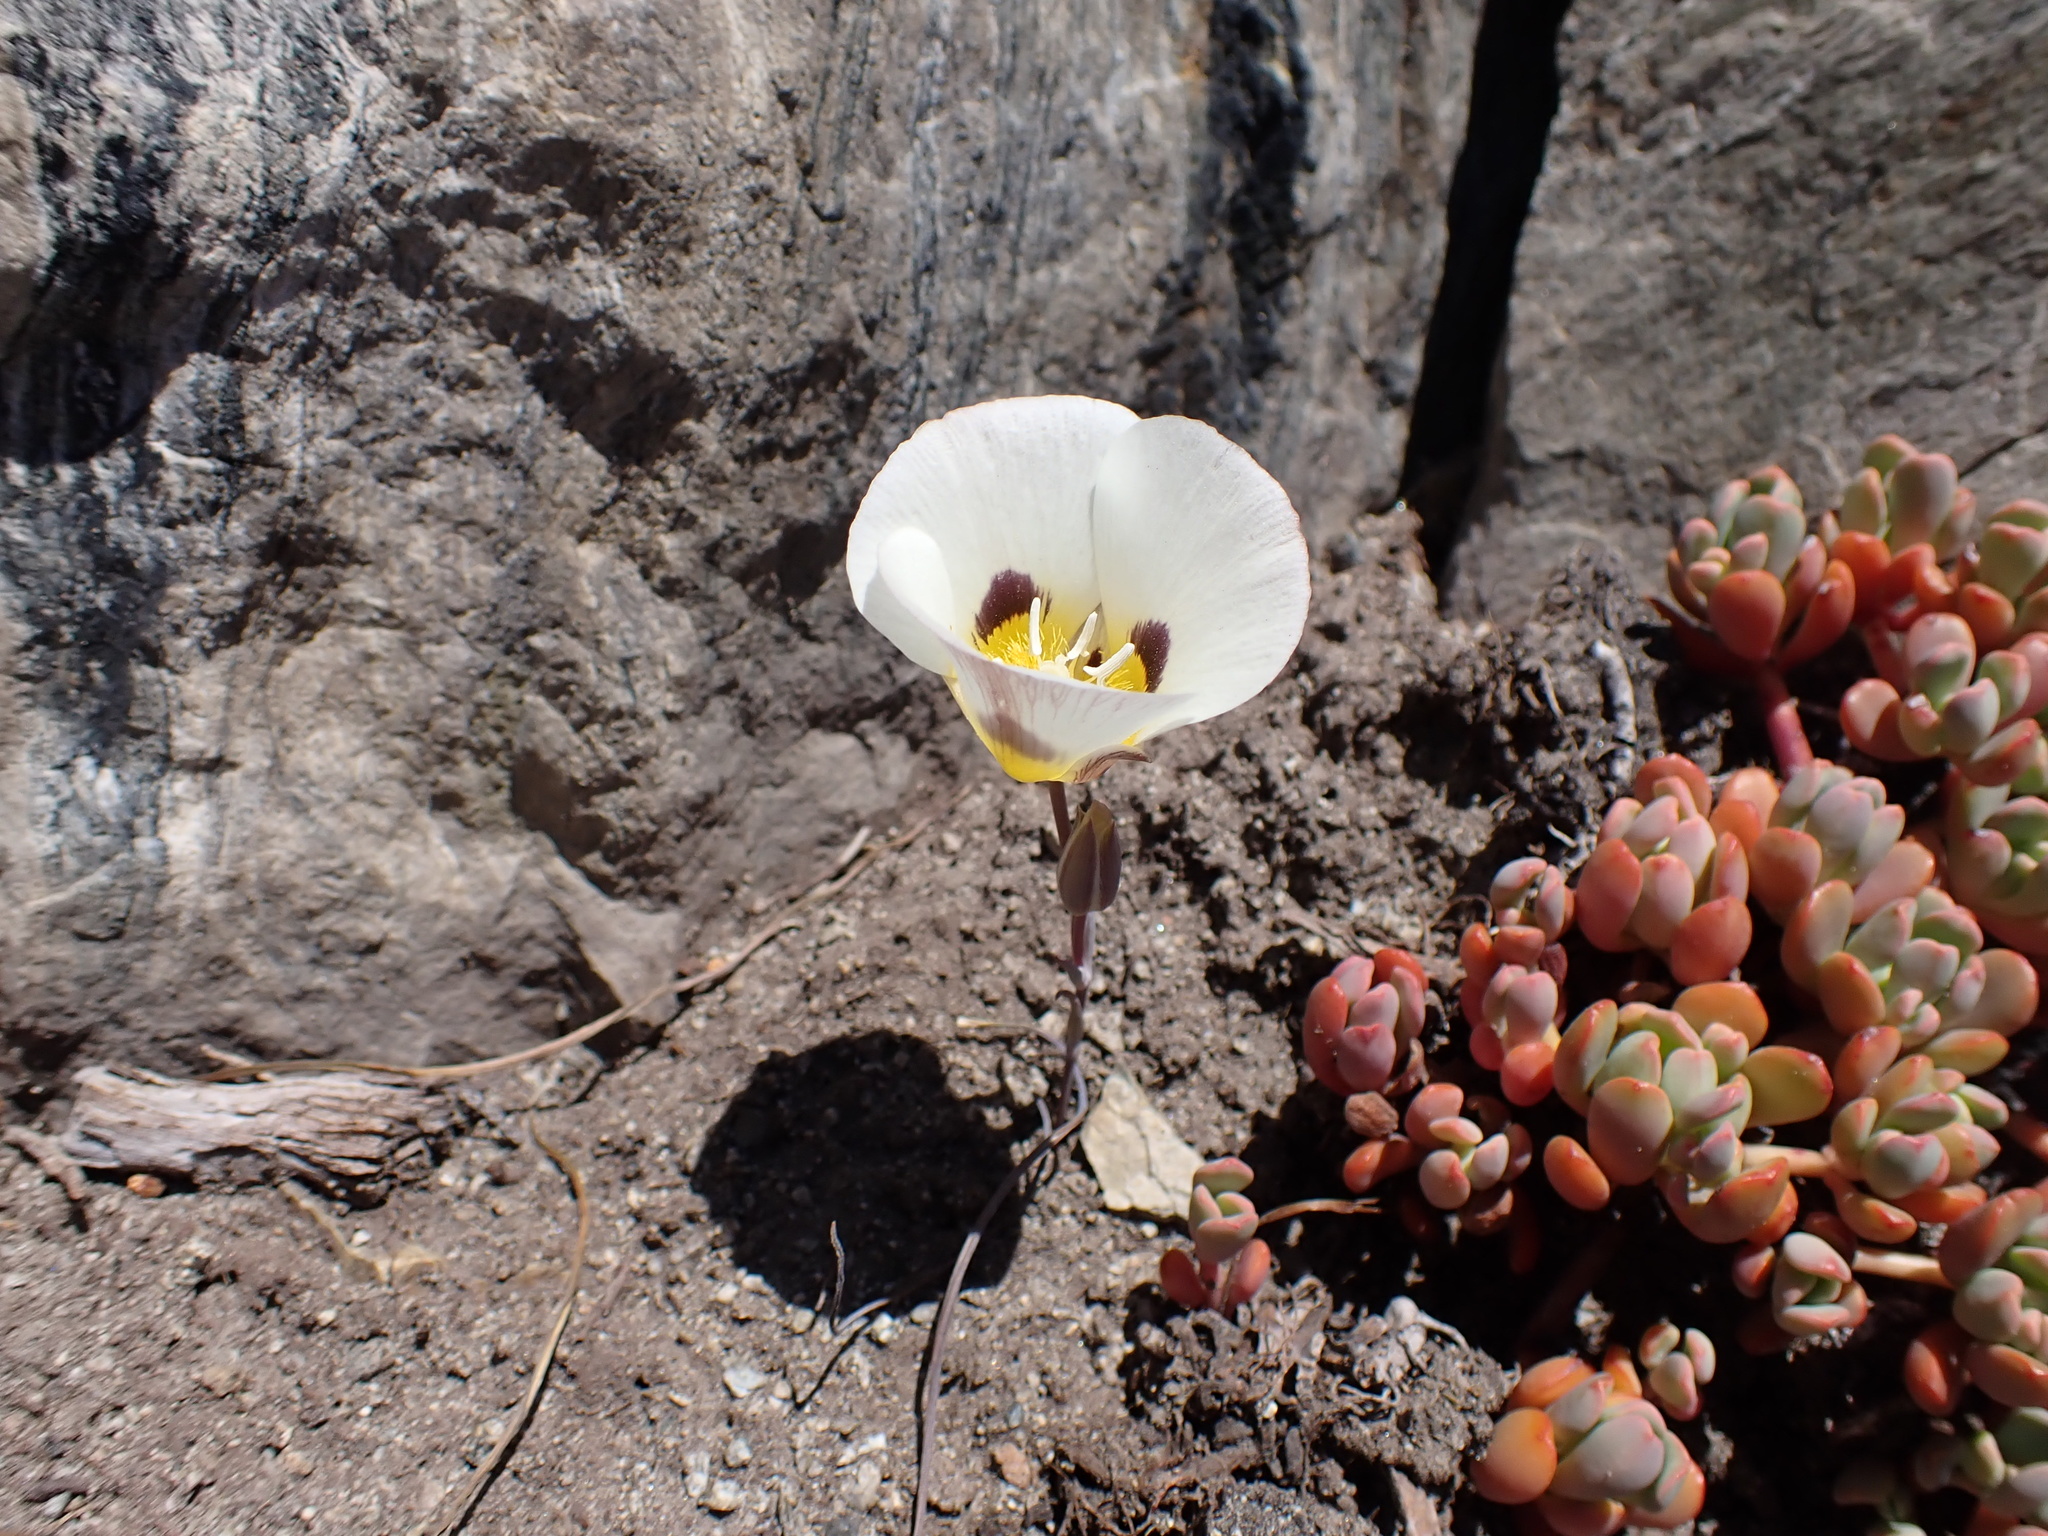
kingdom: Plantae
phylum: Tracheophyta
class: Liliopsida
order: Liliales
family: Liliaceae
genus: Calochortus
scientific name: Calochortus leichtlinii
